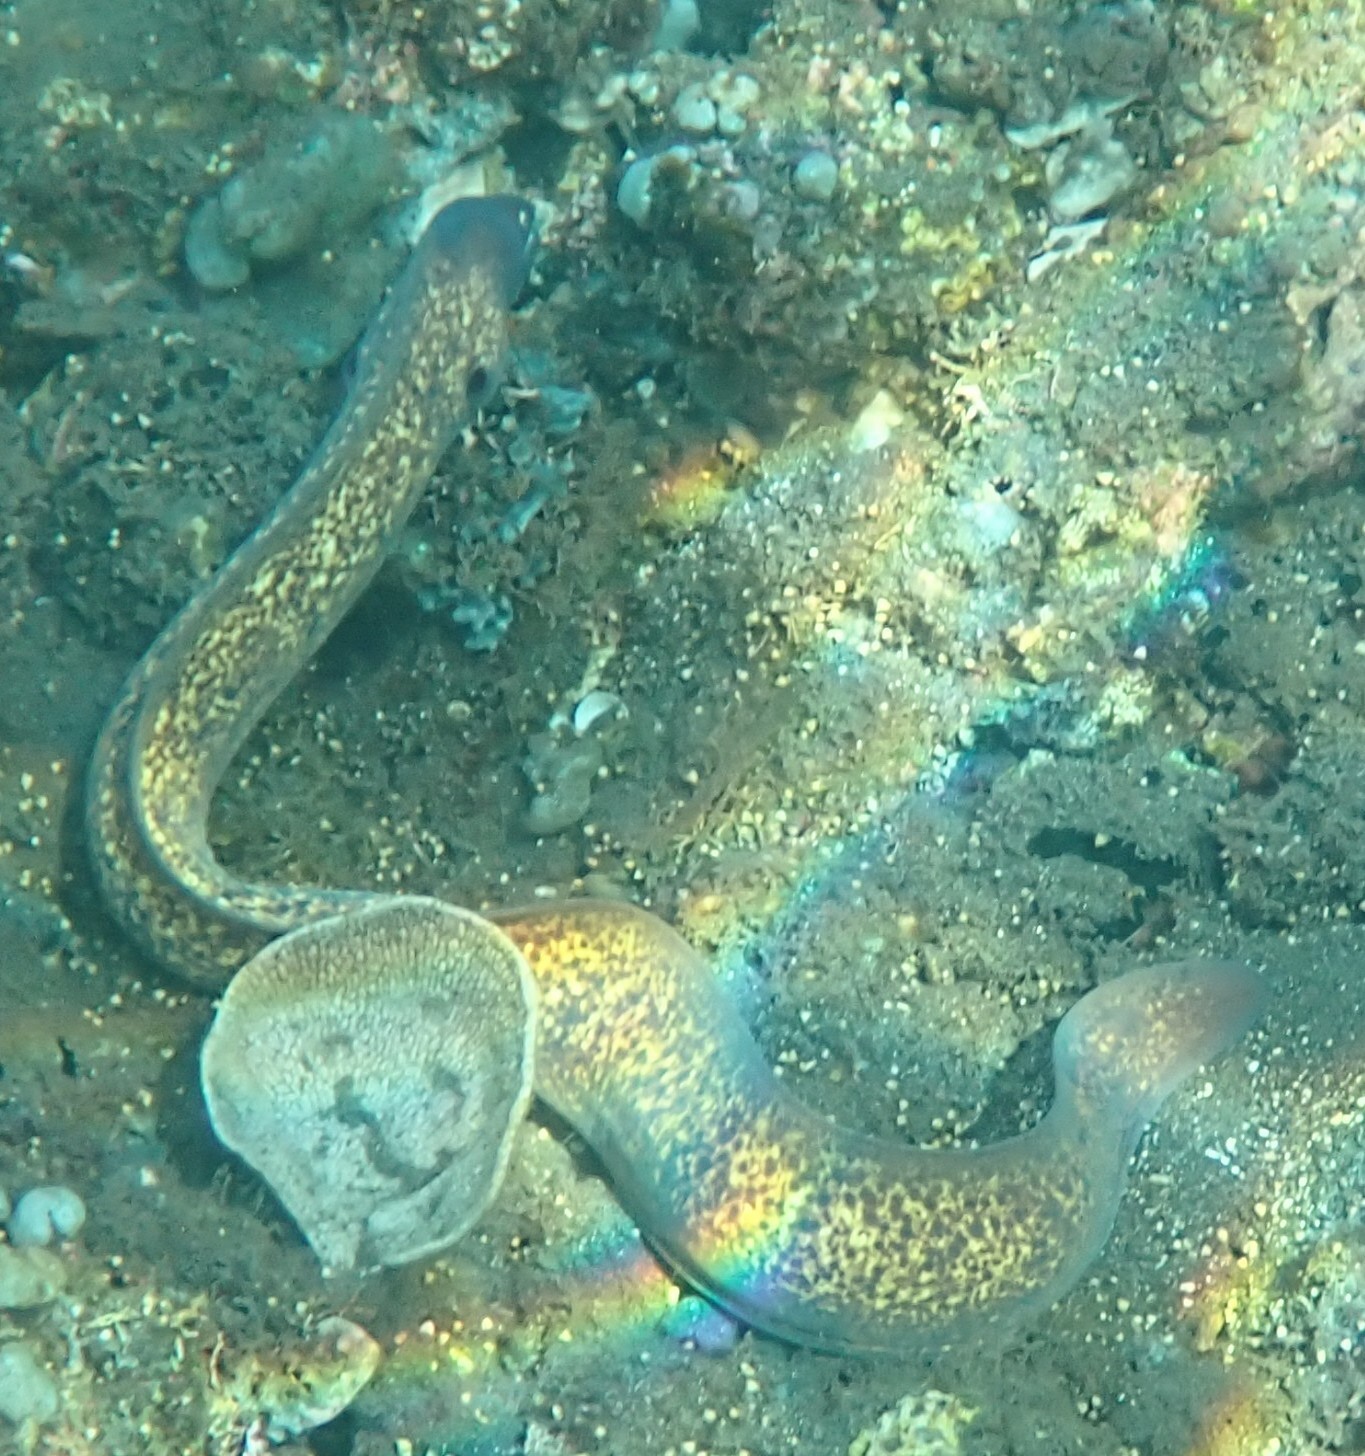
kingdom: Animalia
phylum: Chordata
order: Anguilliformes
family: Muraenidae
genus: Gymnothorax
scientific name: Gymnothorax thyrsoideus
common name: Greyface moray
